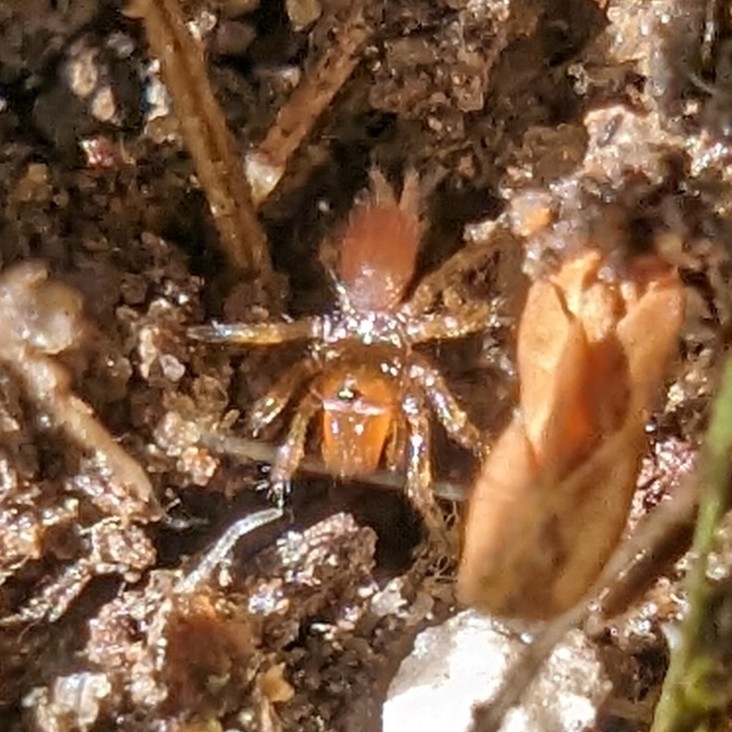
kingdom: Animalia
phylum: Arthropoda
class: Arachnida
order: Araneae
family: Atypidae
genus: Atypus
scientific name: Atypus karschi
